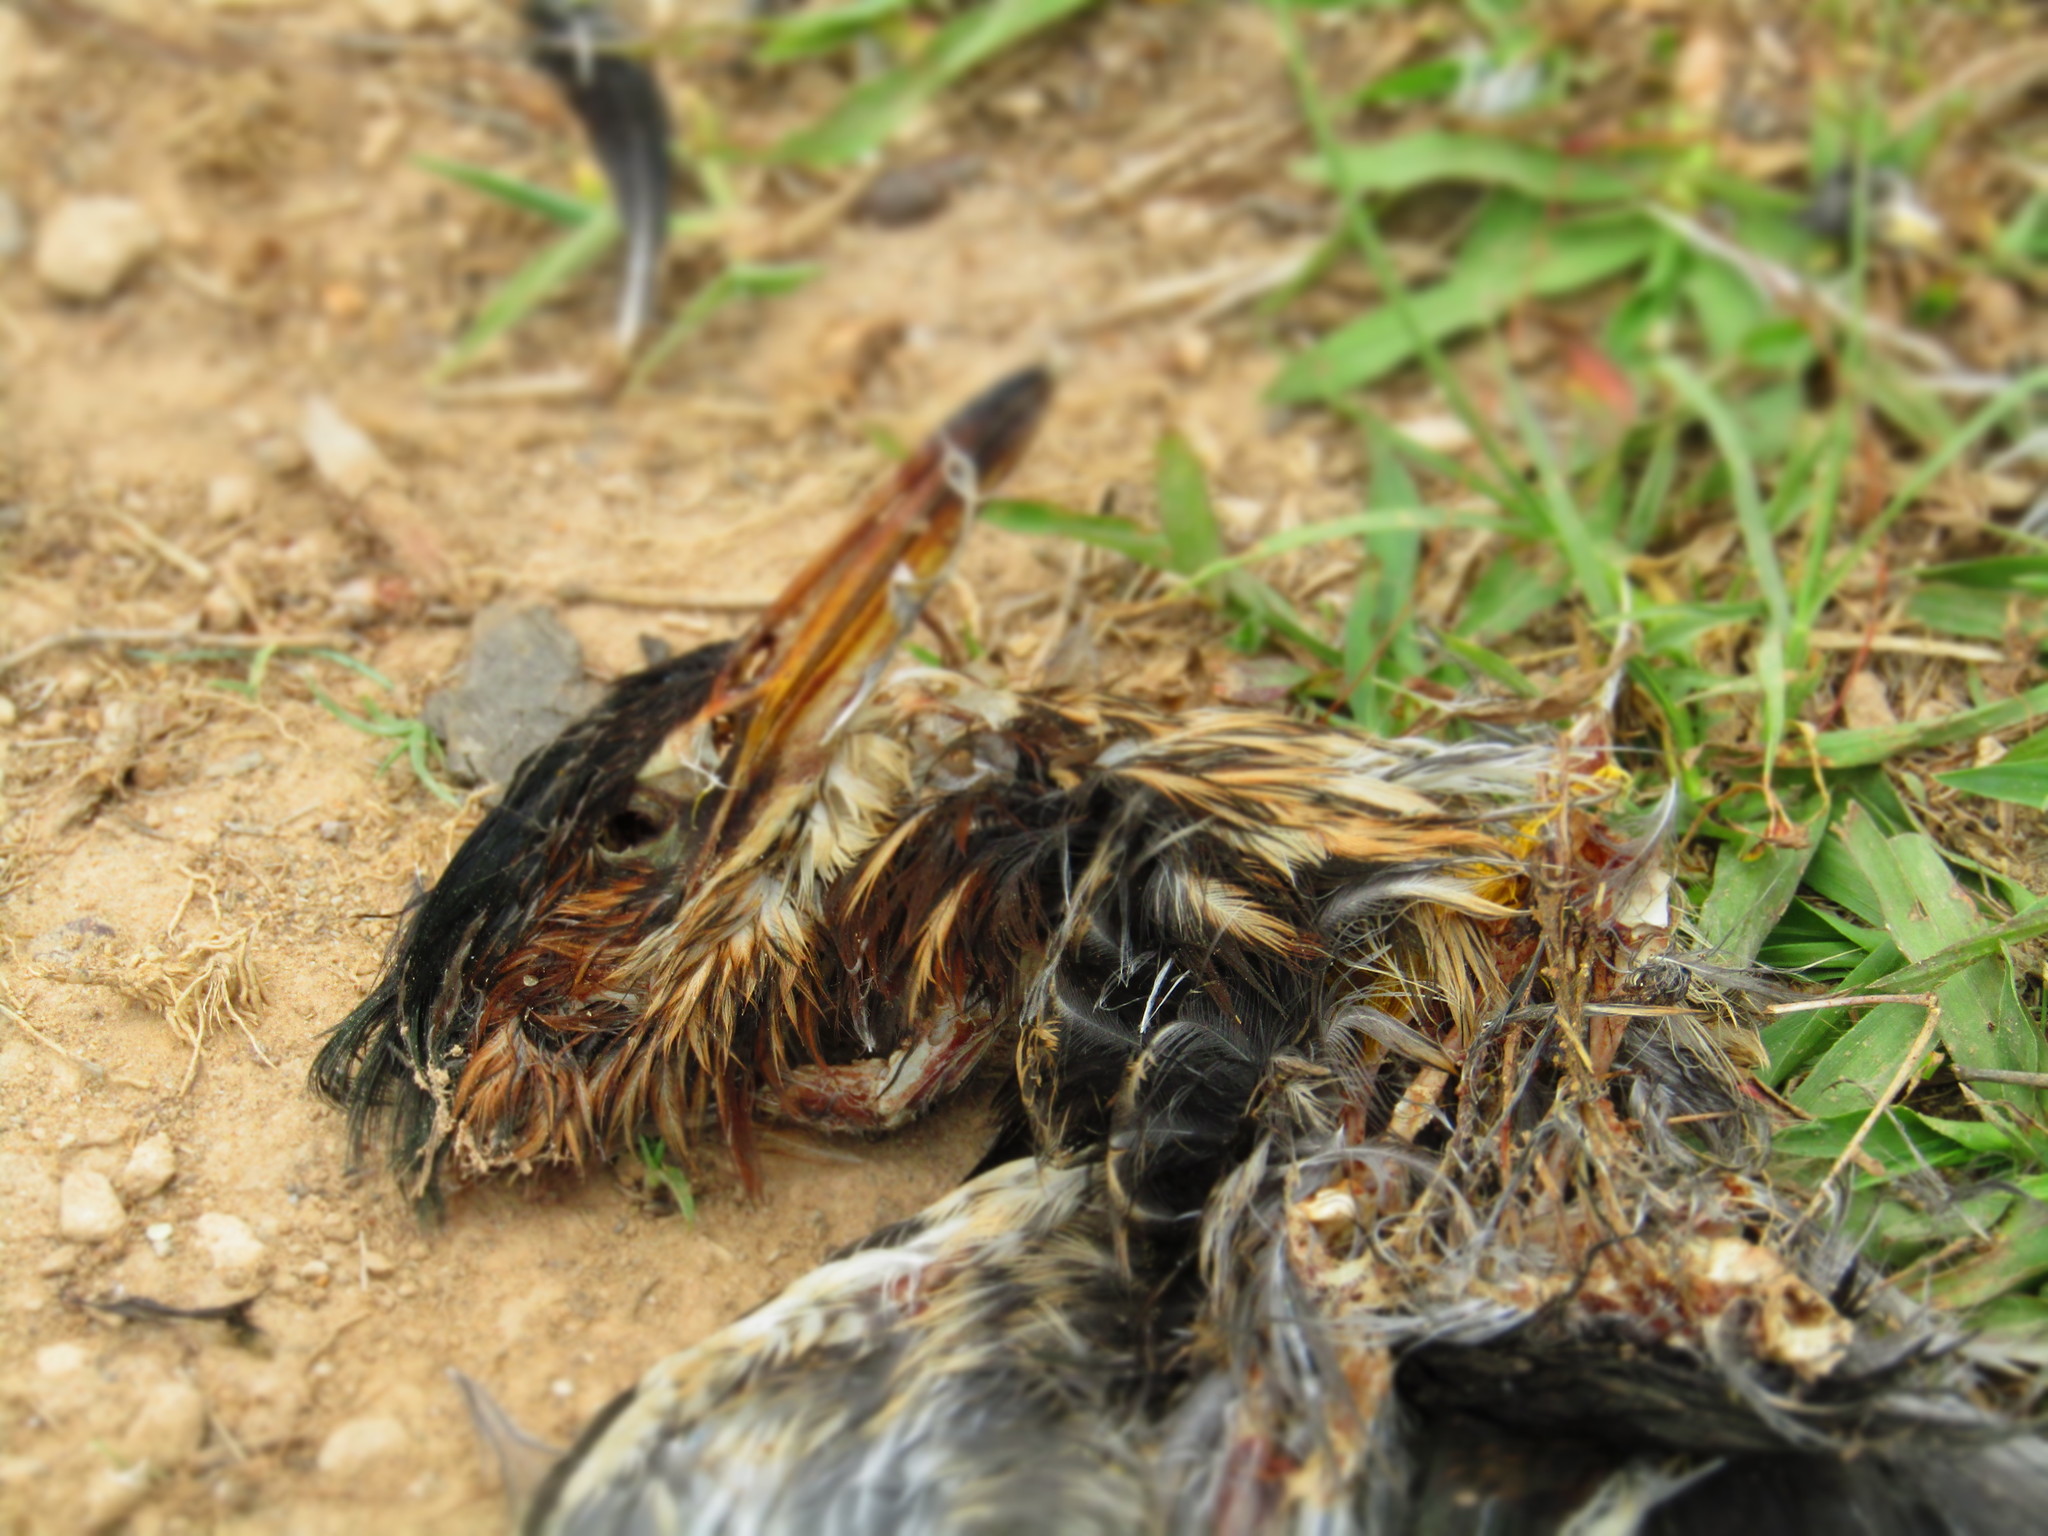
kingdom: Animalia
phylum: Chordata
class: Aves
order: Pelecaniformes
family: Ardeidae
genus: Butorides
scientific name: Butorides virescens
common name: Green heron
